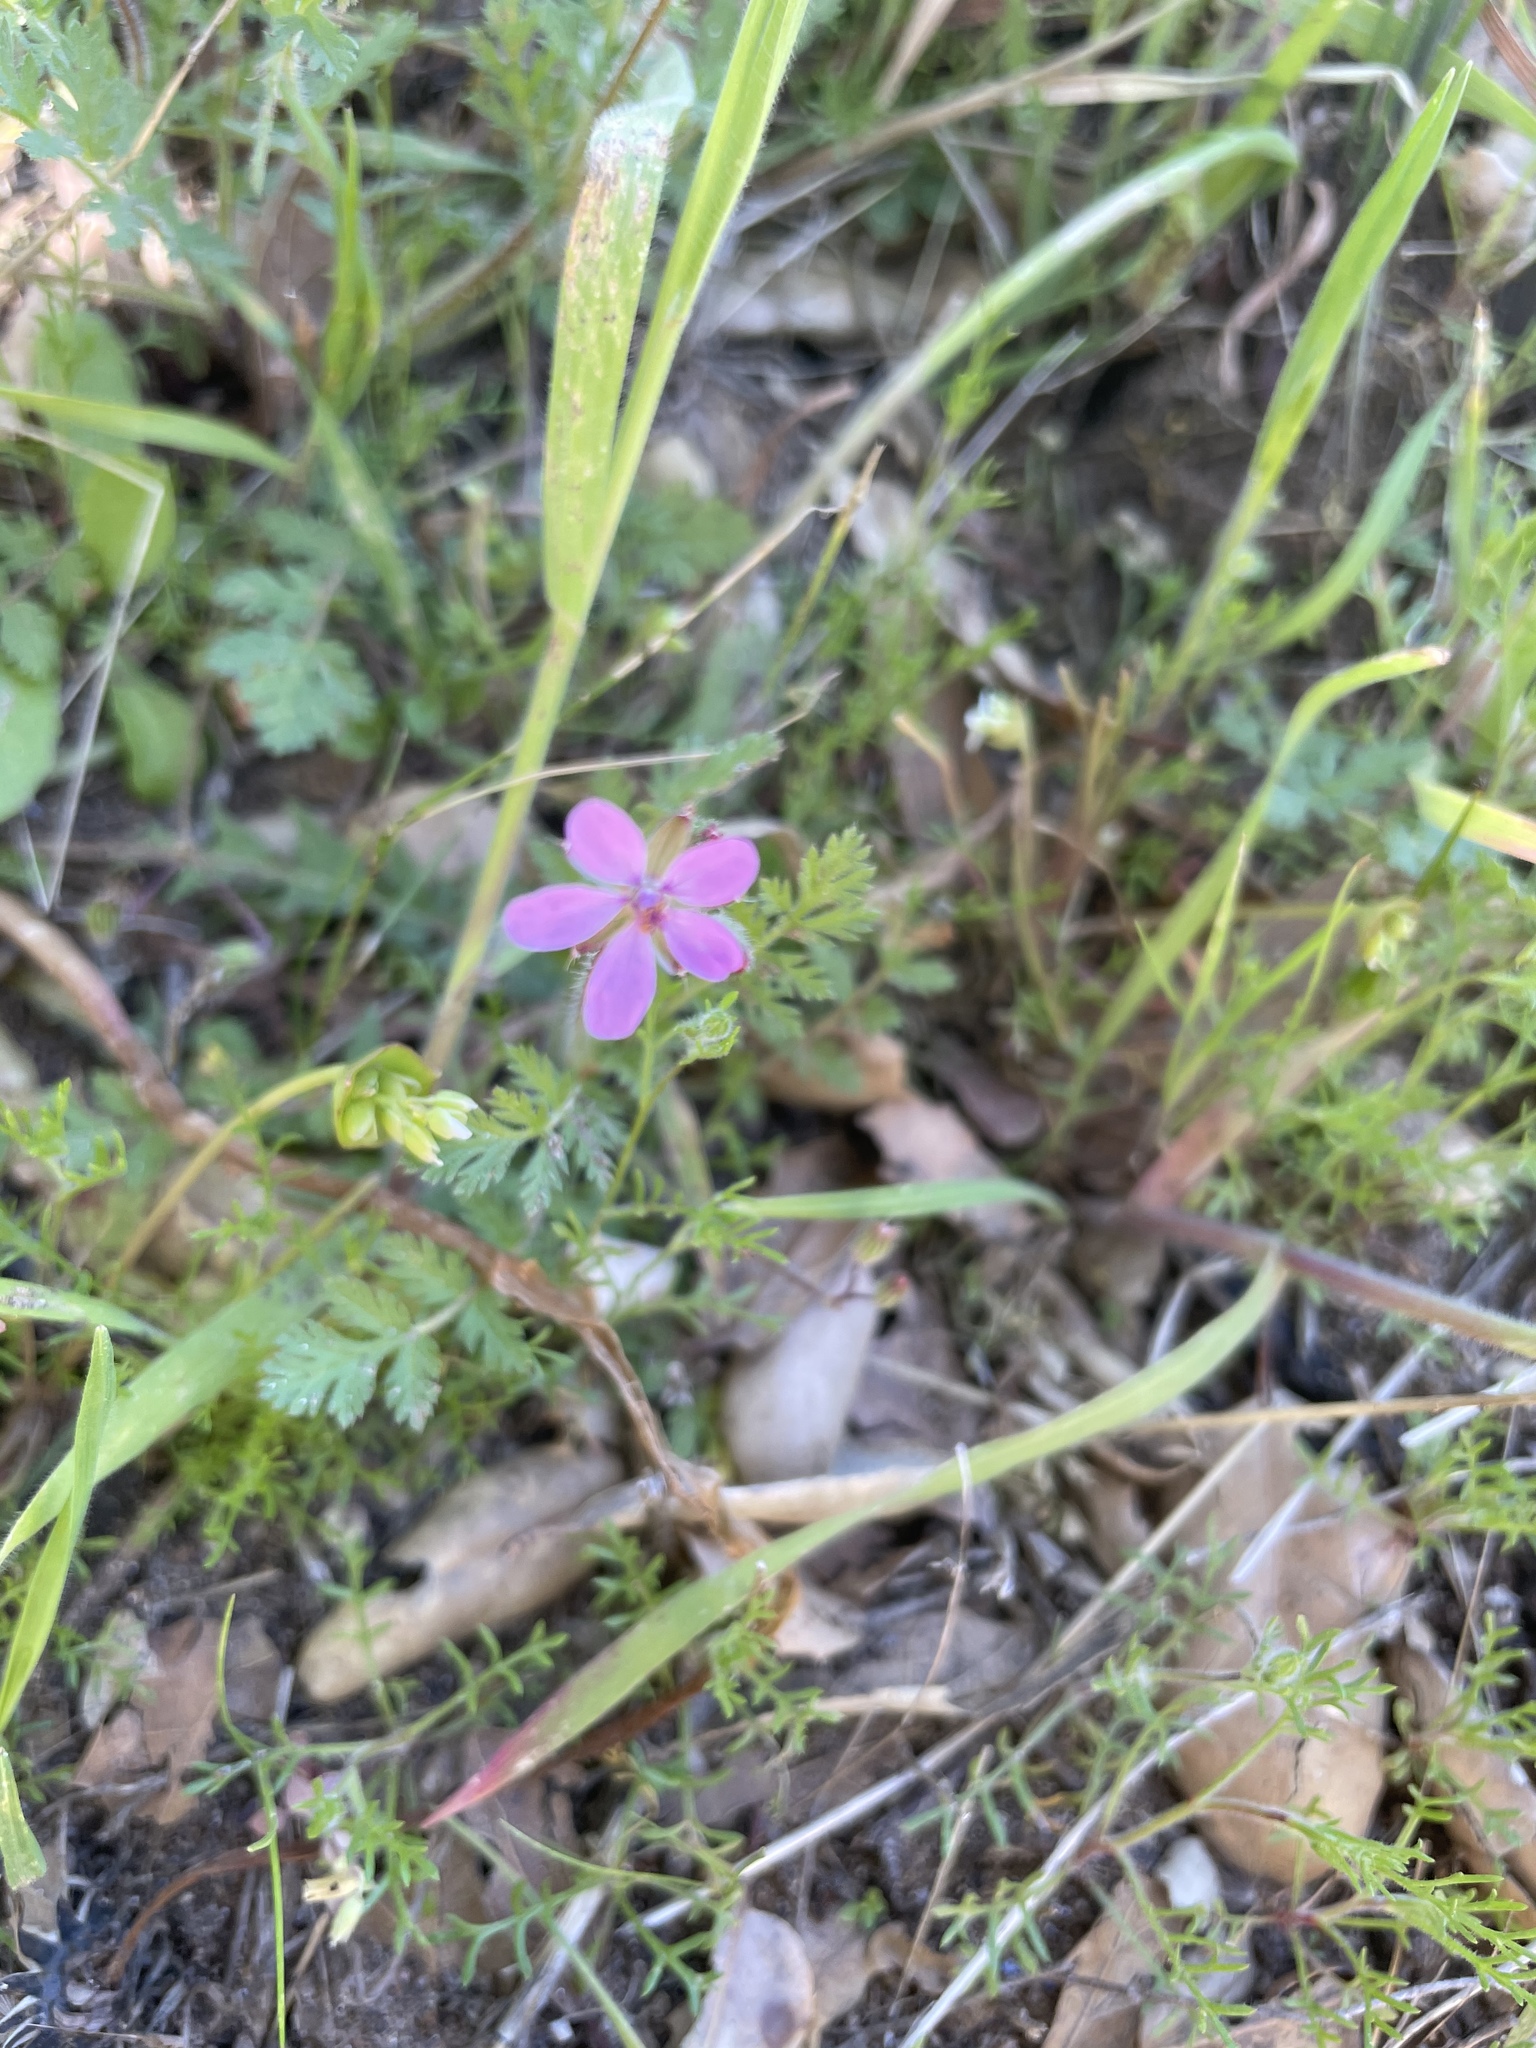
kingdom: Plantae
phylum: Tracheophyta
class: Magnoliopsida
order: Geraniales
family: Geraniaceae
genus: Erodium
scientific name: Erodium cicutarium
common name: Common stork's-bill
